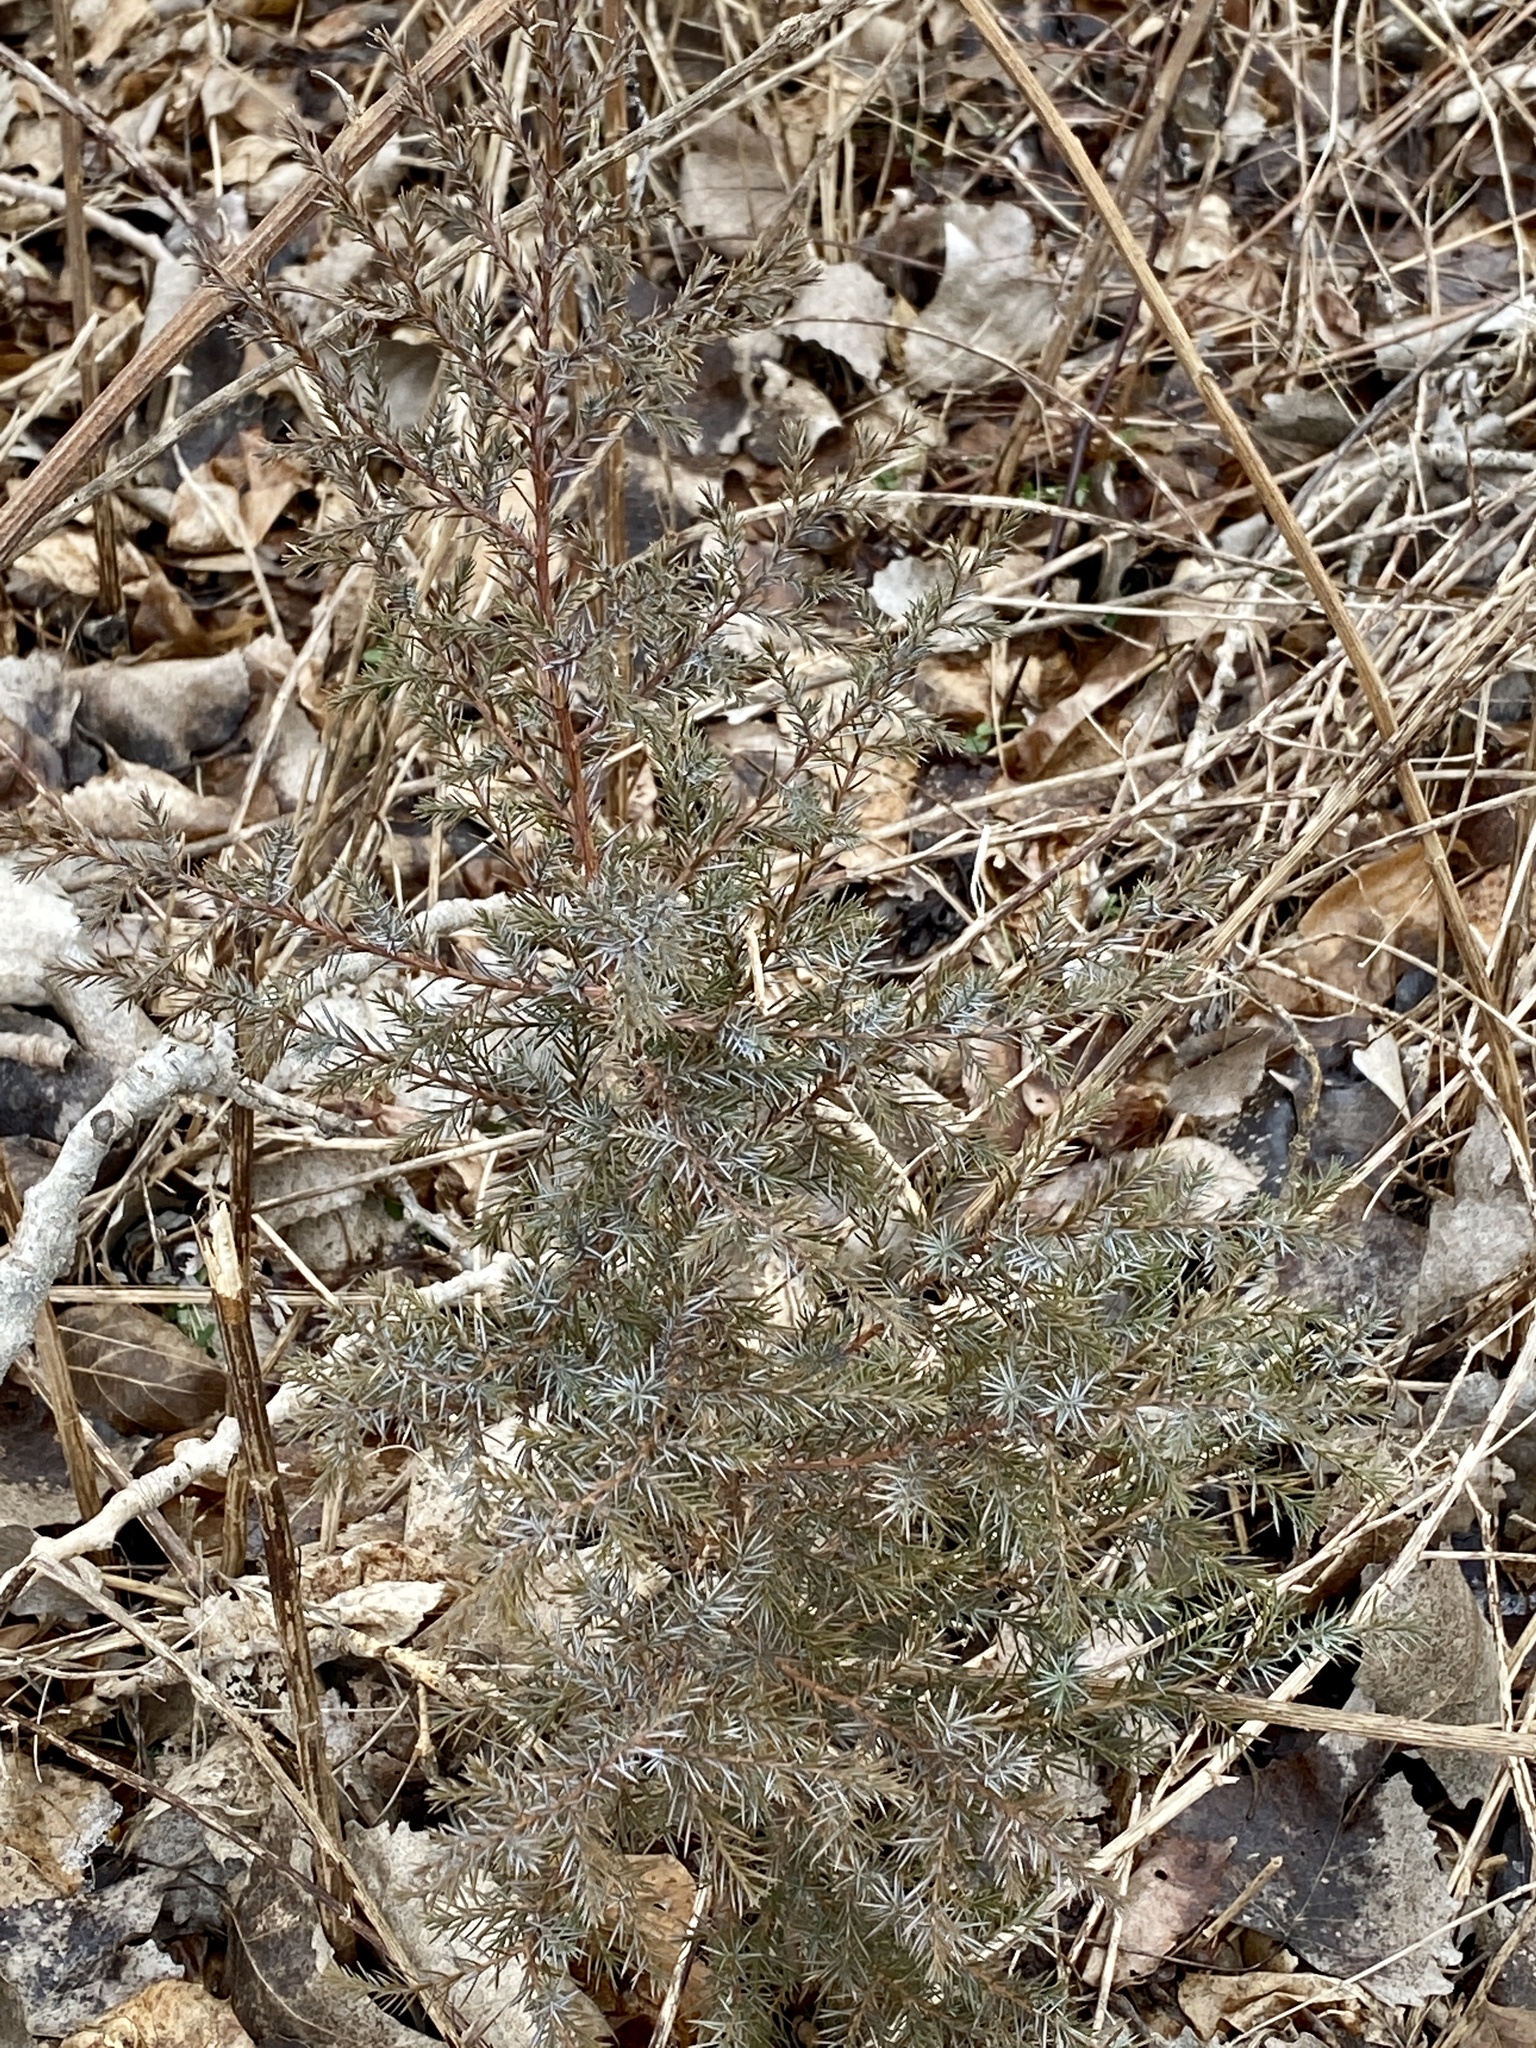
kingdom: Plantae
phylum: Tracheophyta
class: Pinopsida
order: Pinales
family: Cupressaceae
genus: Juniperus
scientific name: Juniperus virginiana
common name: Red juniper
